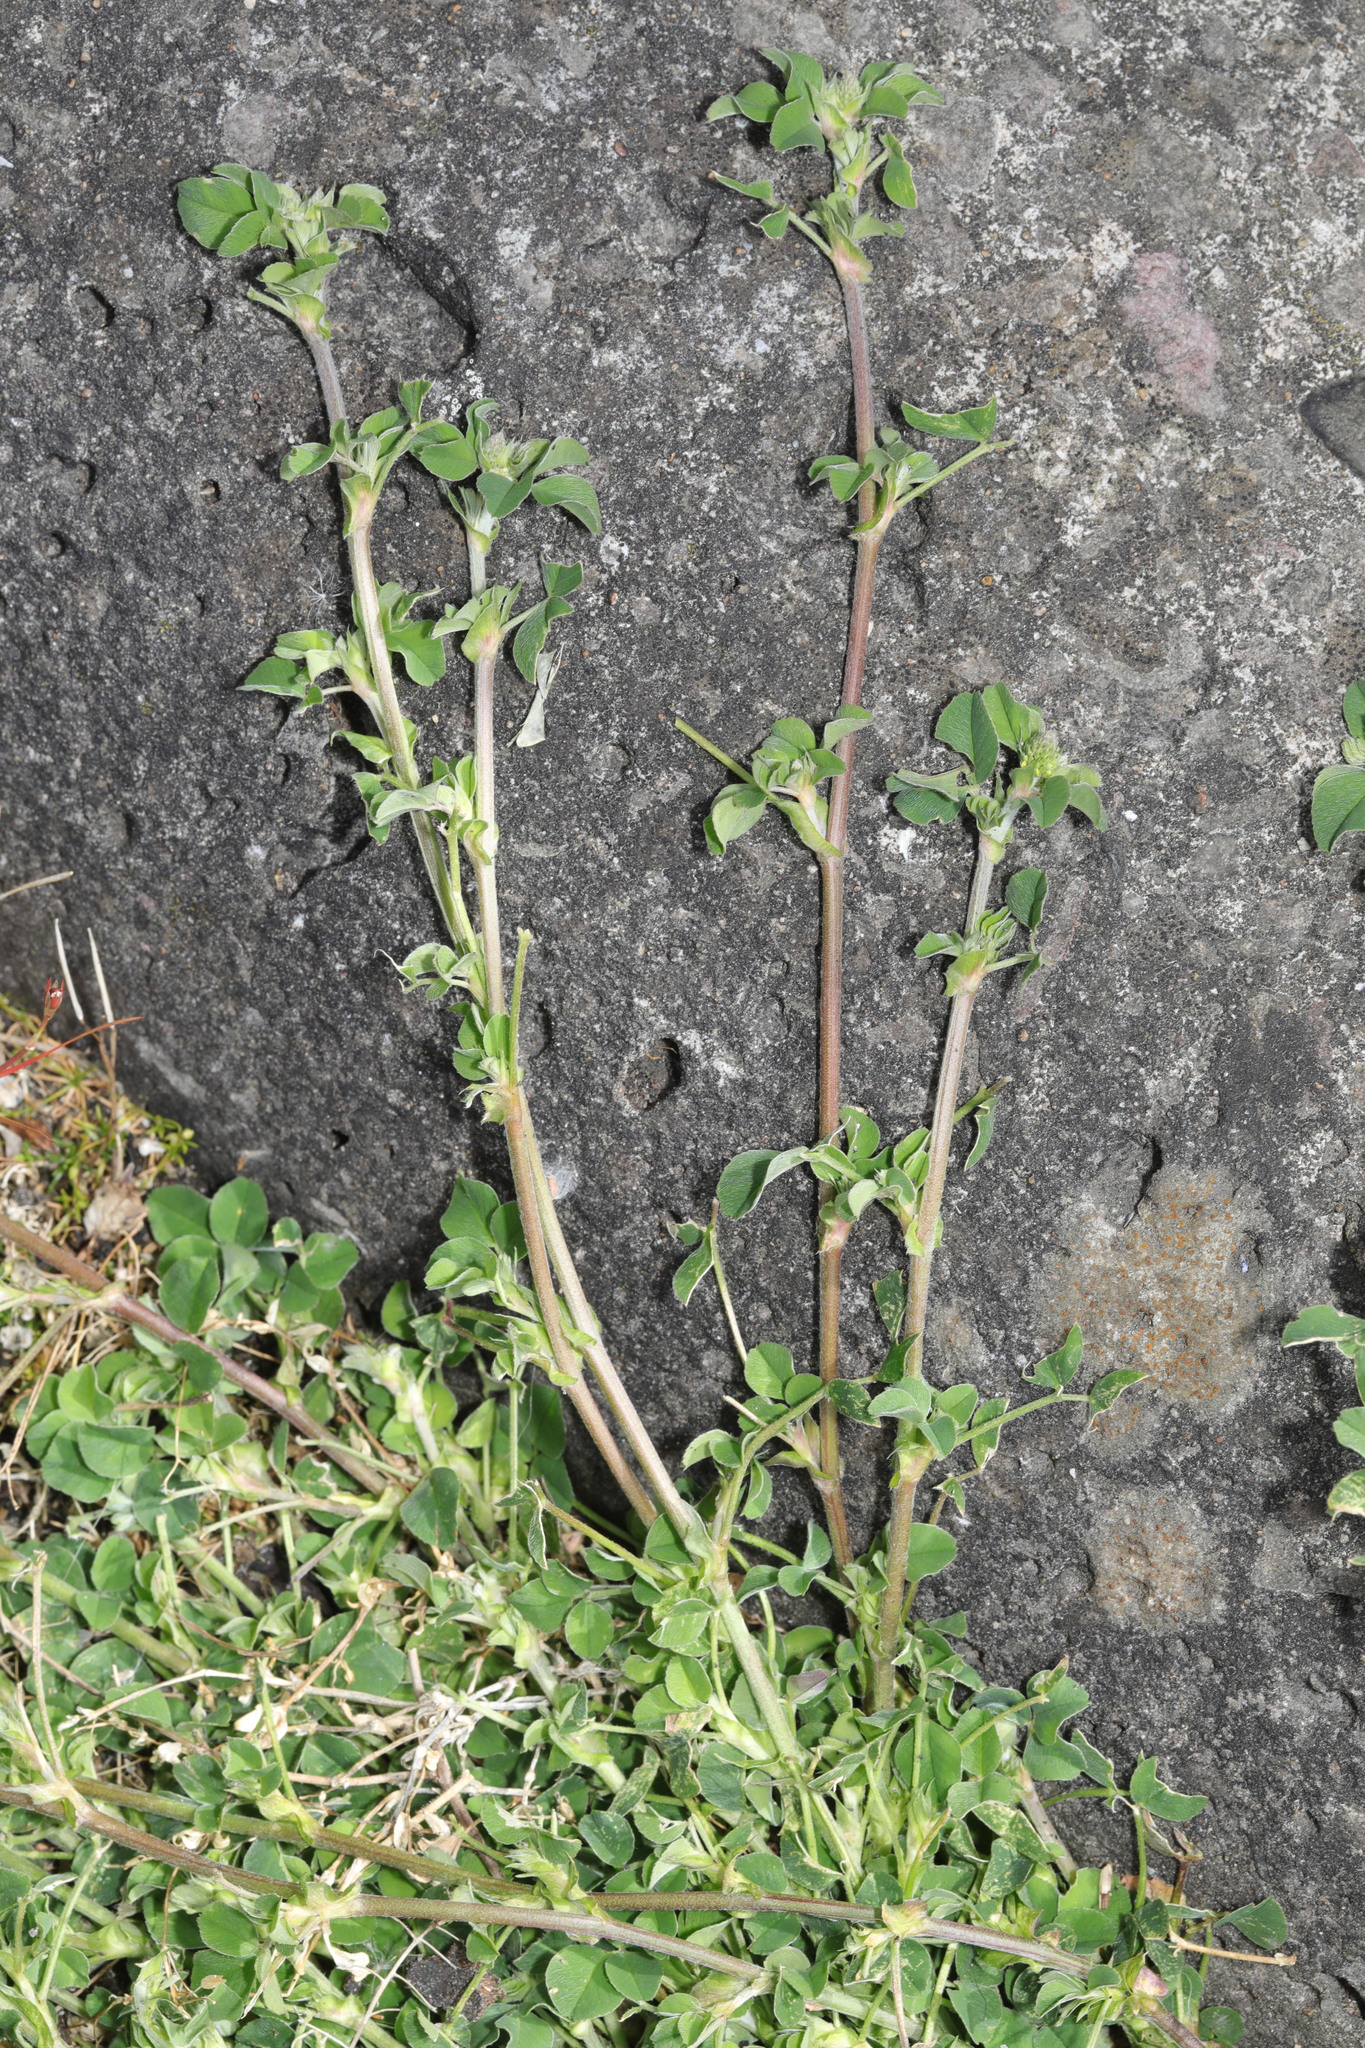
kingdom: Plantae
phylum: Tracheophyta
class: Magnoliopsida
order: Fabales
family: Fabaceae
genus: Medicago
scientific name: Medicago lupulina
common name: Black medick
